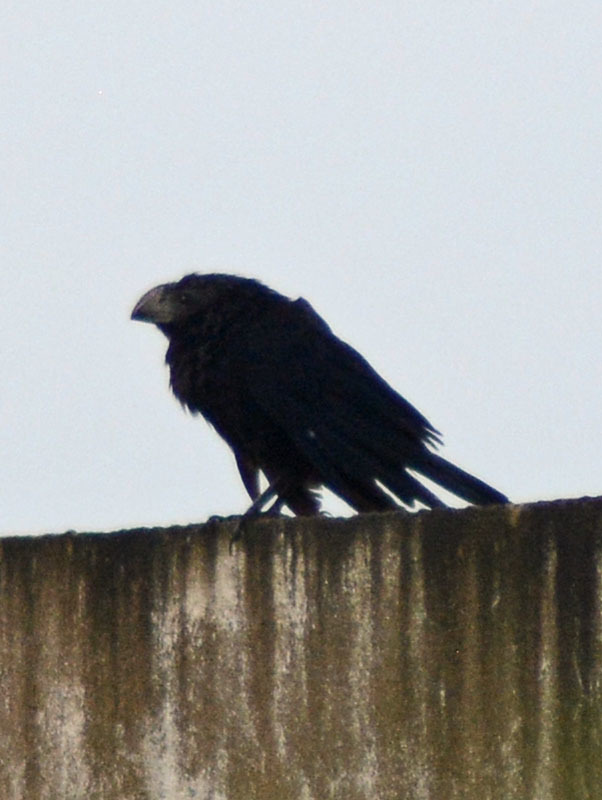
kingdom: Animalia
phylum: Chordata
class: Aves
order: Cuculiformes
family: Cuculidae
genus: Crotophaga
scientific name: Crotophaga sulcirostris
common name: Groove-billed ani
